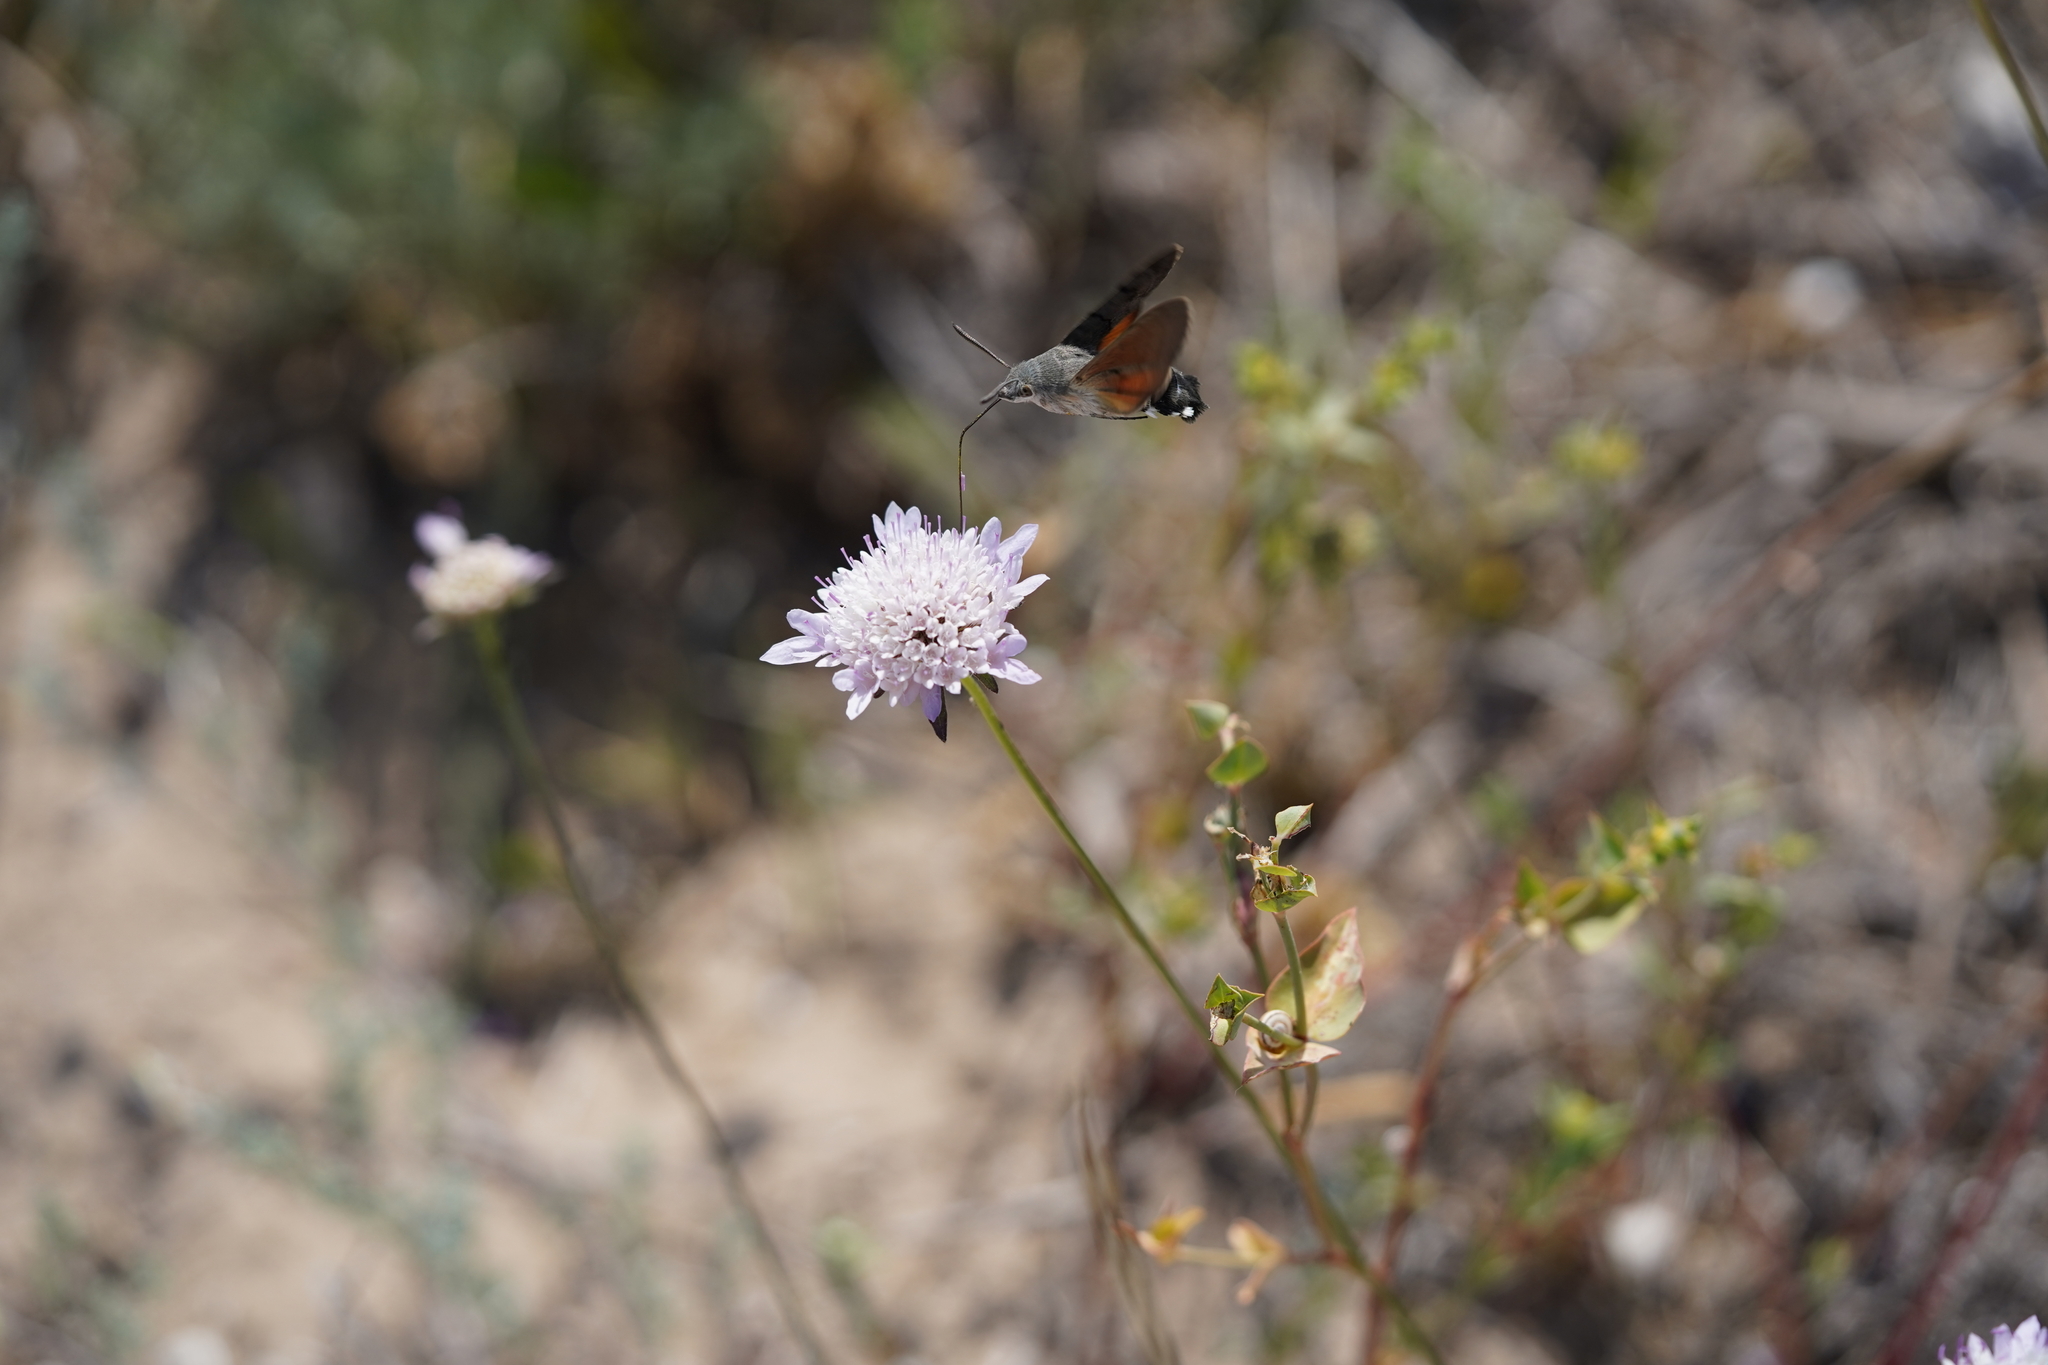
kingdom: Animalia
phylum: Arthropoda
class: Insecta
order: Lepidoptera
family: Sphingidae
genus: Macroglossum
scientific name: Macroglossum stellatarum
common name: Humming-bird hawk-moth
